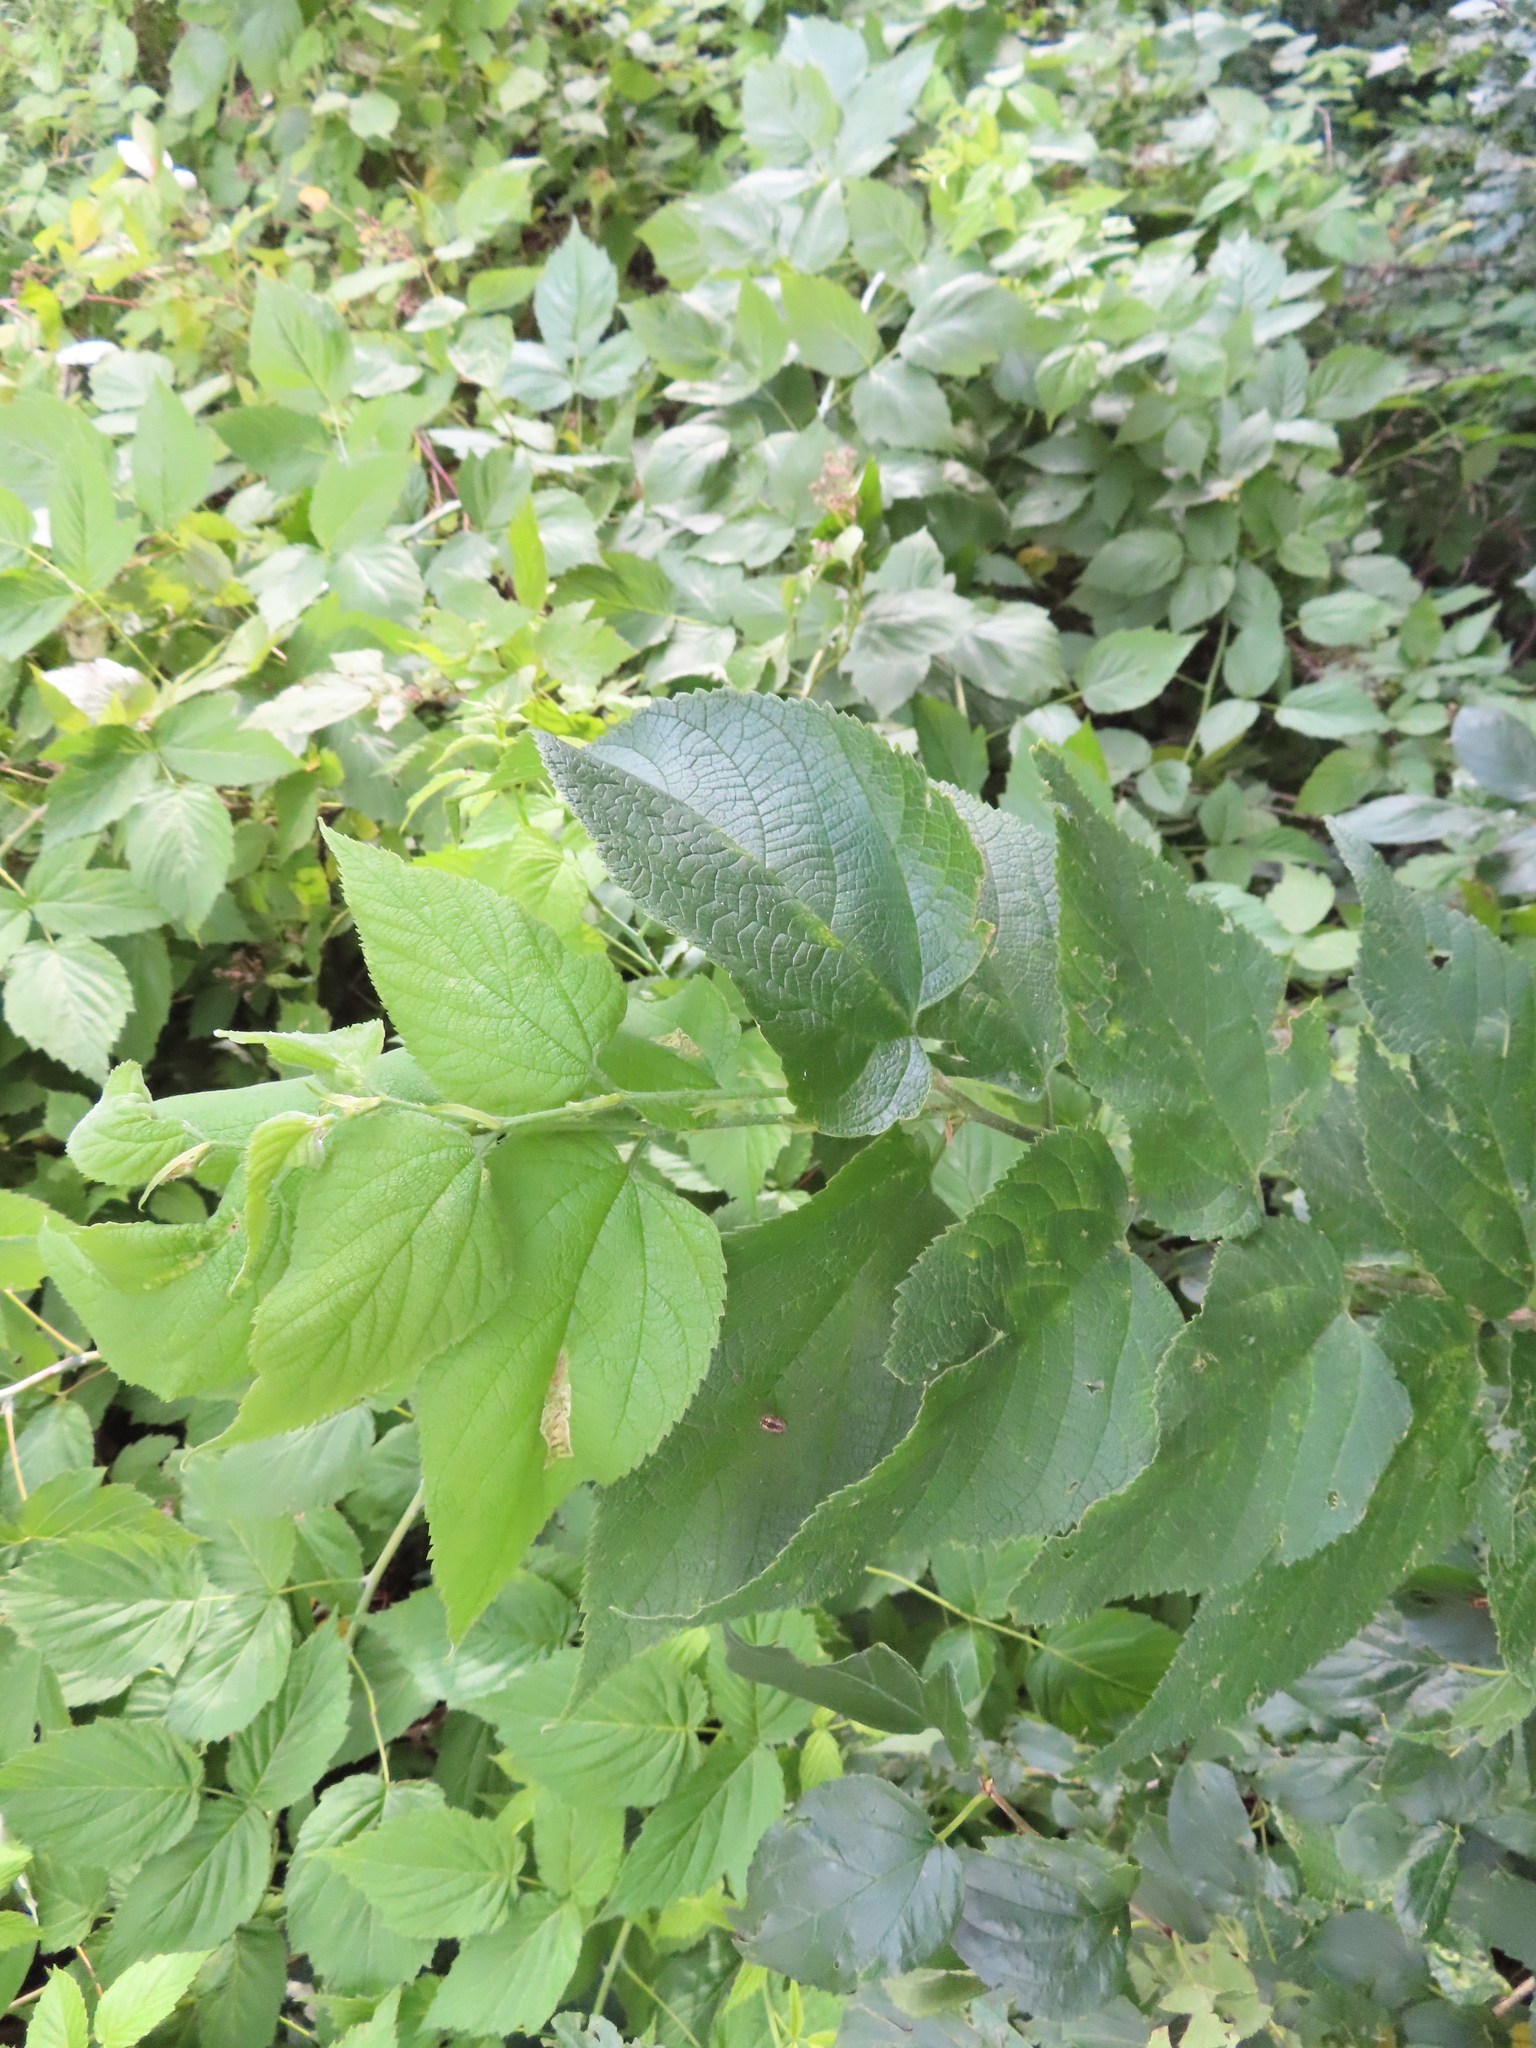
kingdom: Plantae
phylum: Tracheophyta
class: Magnoliopsida
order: Rosales
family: Cannabaceae
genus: Celtis
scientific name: Celtis occidentalis
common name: Common hackberry
